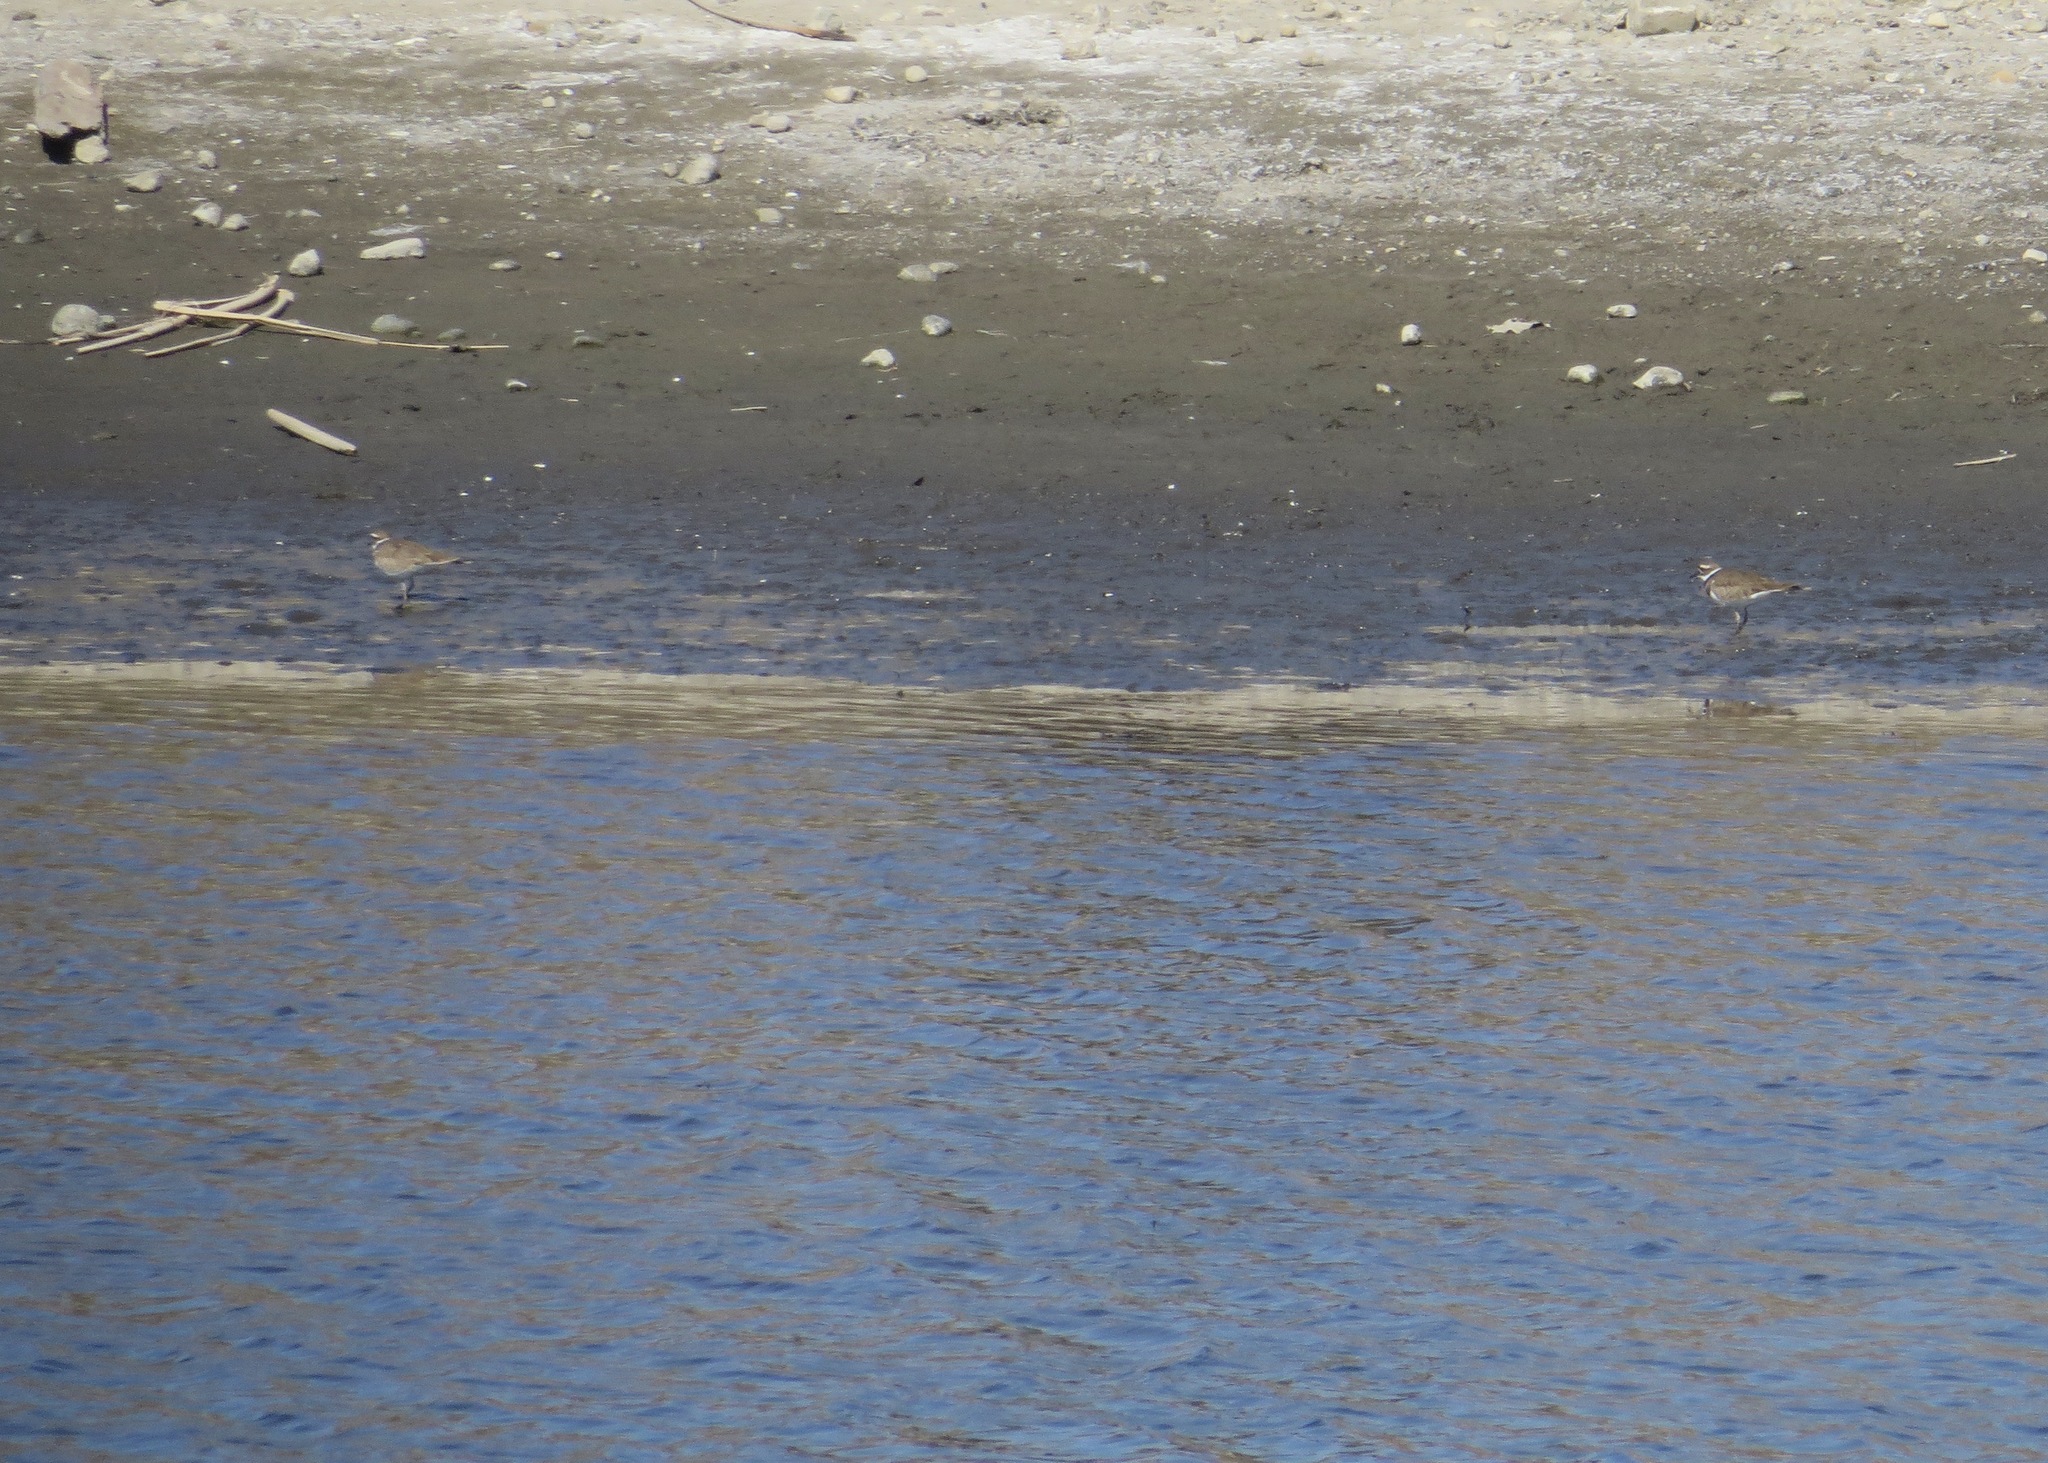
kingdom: Animalia
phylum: Chordata
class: Aves
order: Charadriiformes
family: Charadriidae
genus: Charadrius
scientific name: Charadrius vociferus
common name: Killdeer
